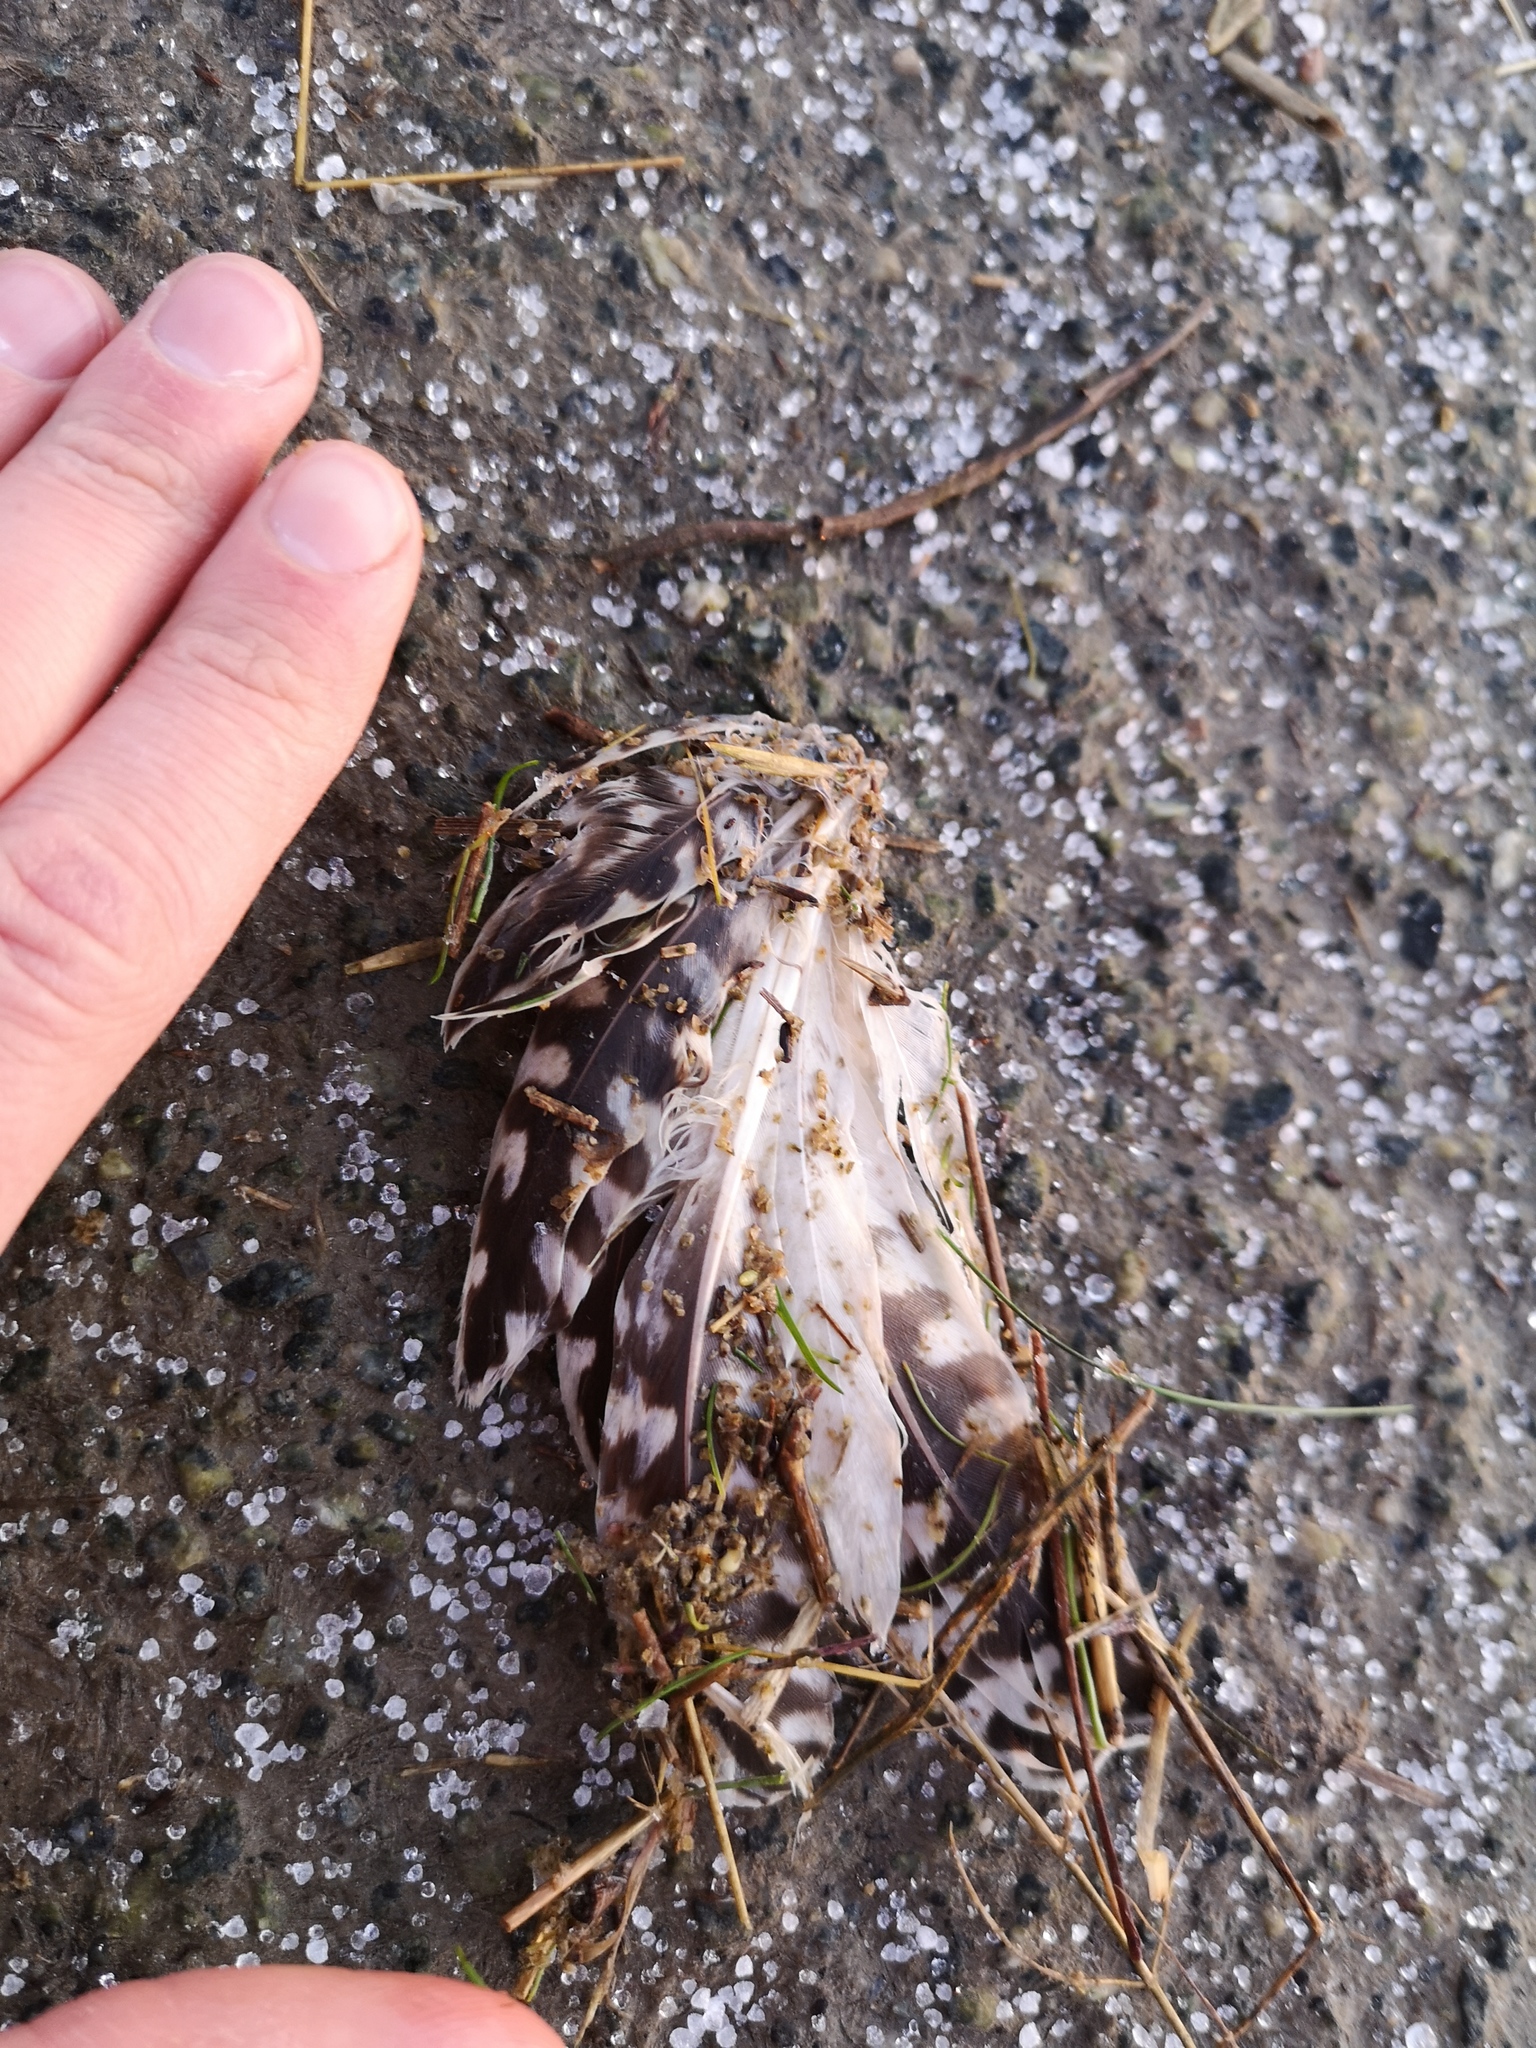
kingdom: Animalia
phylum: Chordata
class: Aves
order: Charadriiformes
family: Scolopacidae
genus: Numenius
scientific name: Numenius arquata
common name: Eurasian curlew
